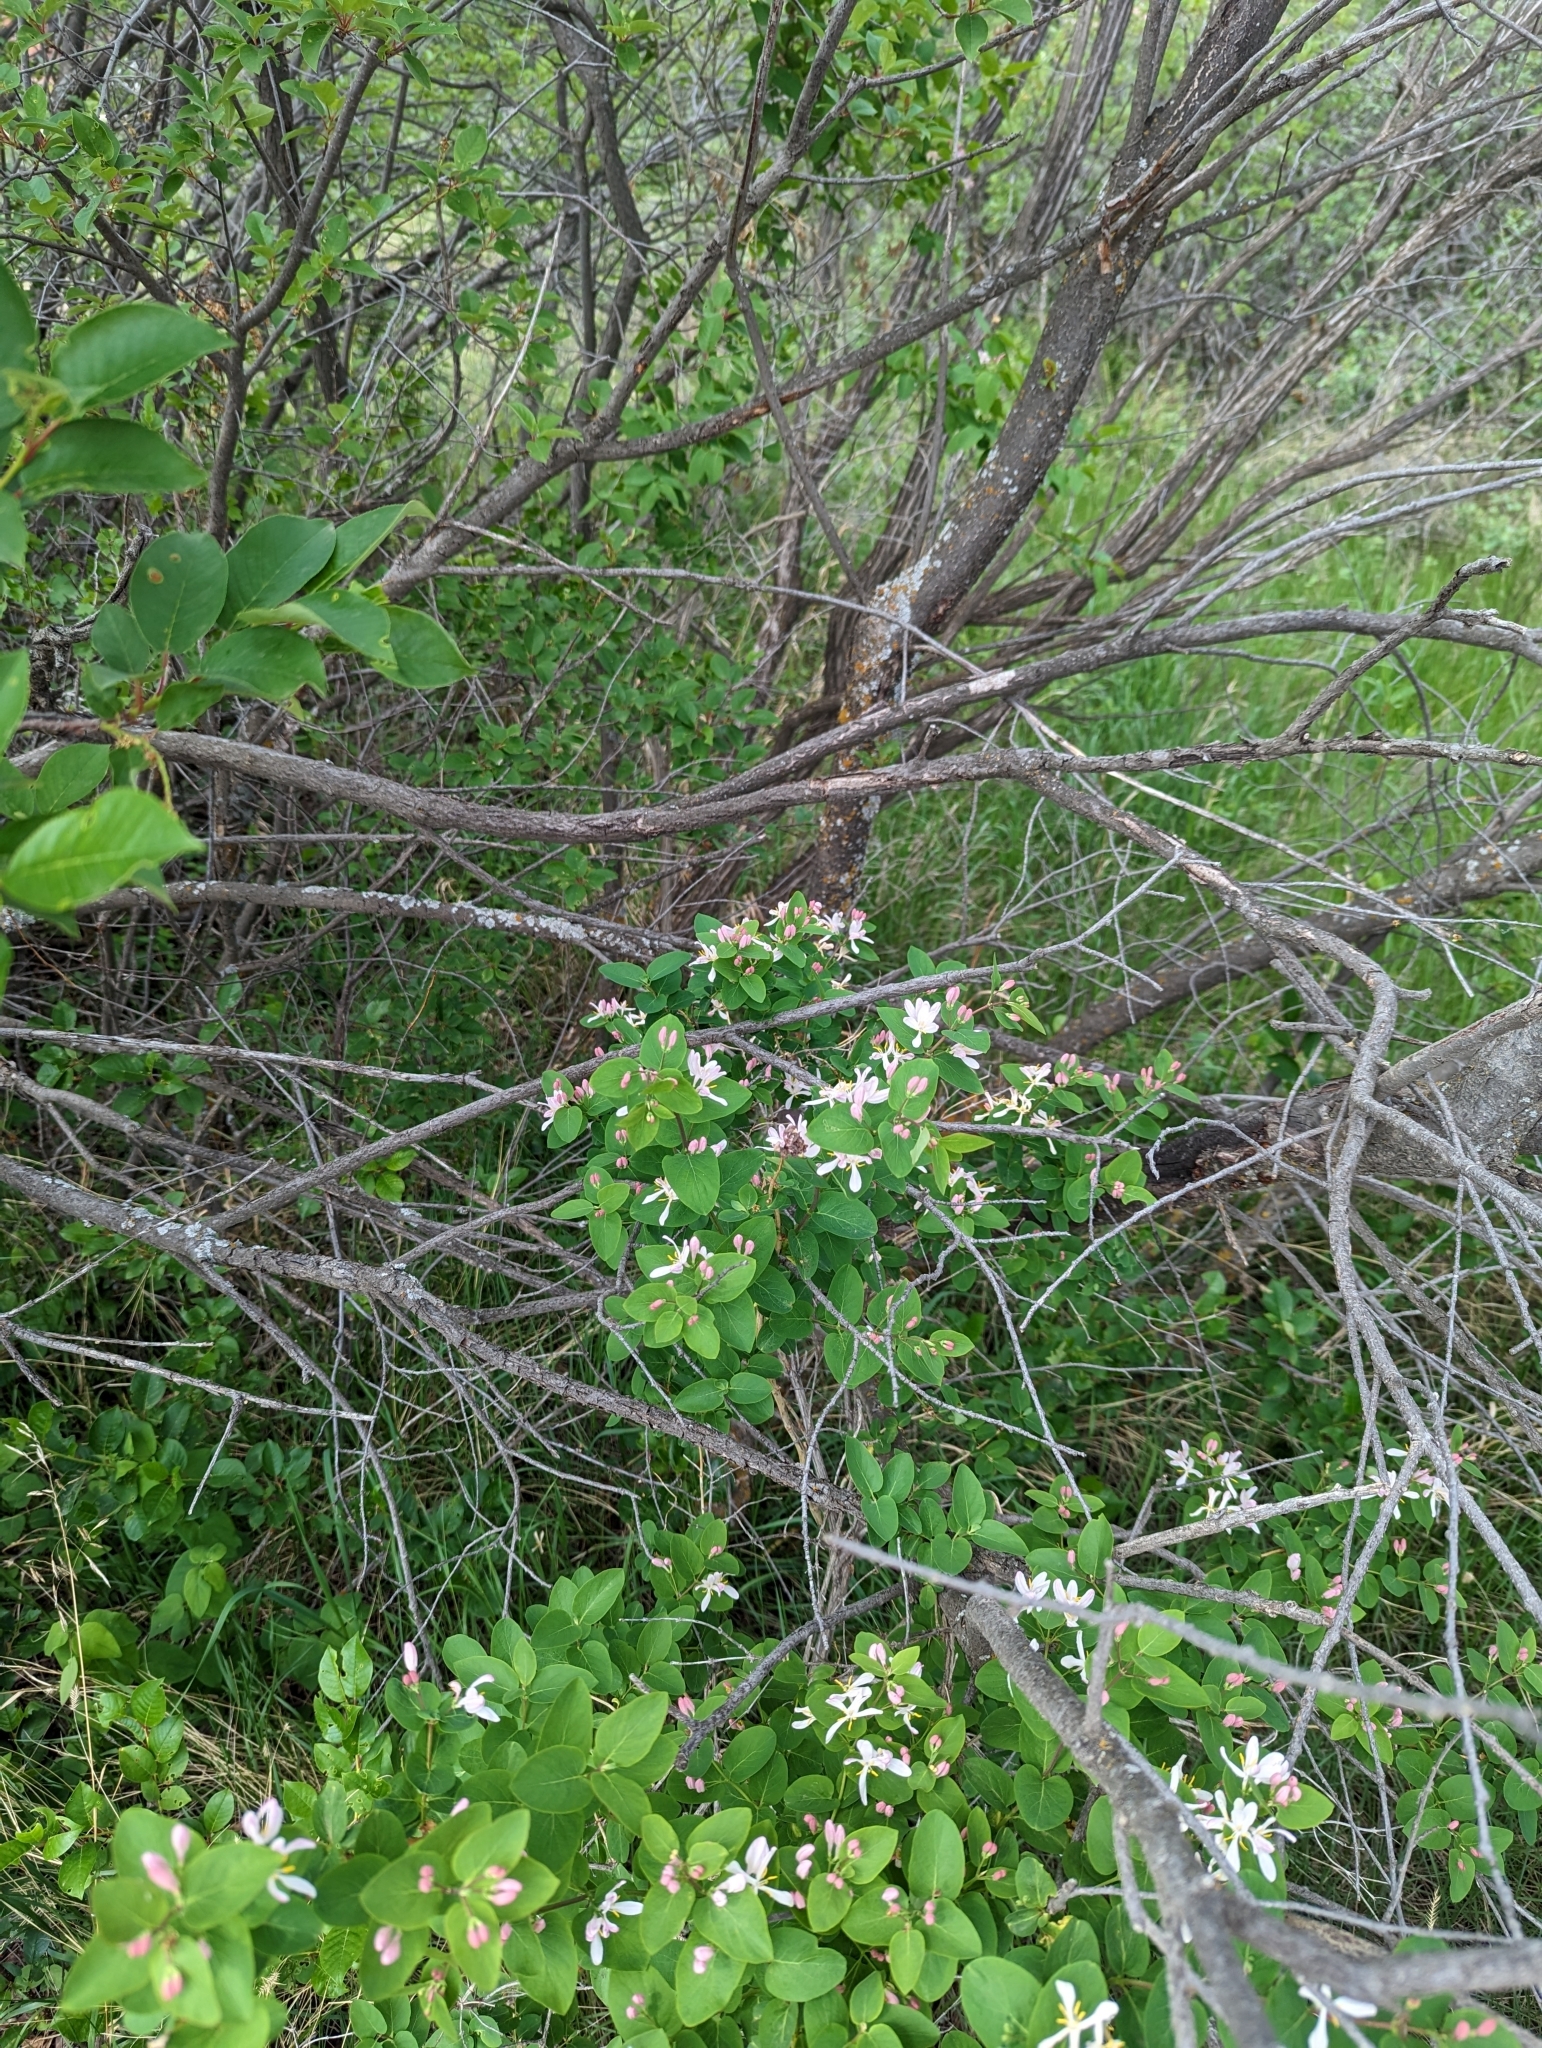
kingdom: Plantae
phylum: Tracheophyta
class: Magnoliopsida
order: Dipsacales
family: Caprifoliaceae
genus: Lonicera
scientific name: Lonicera tatarica
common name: Tatarian honeysuckle
